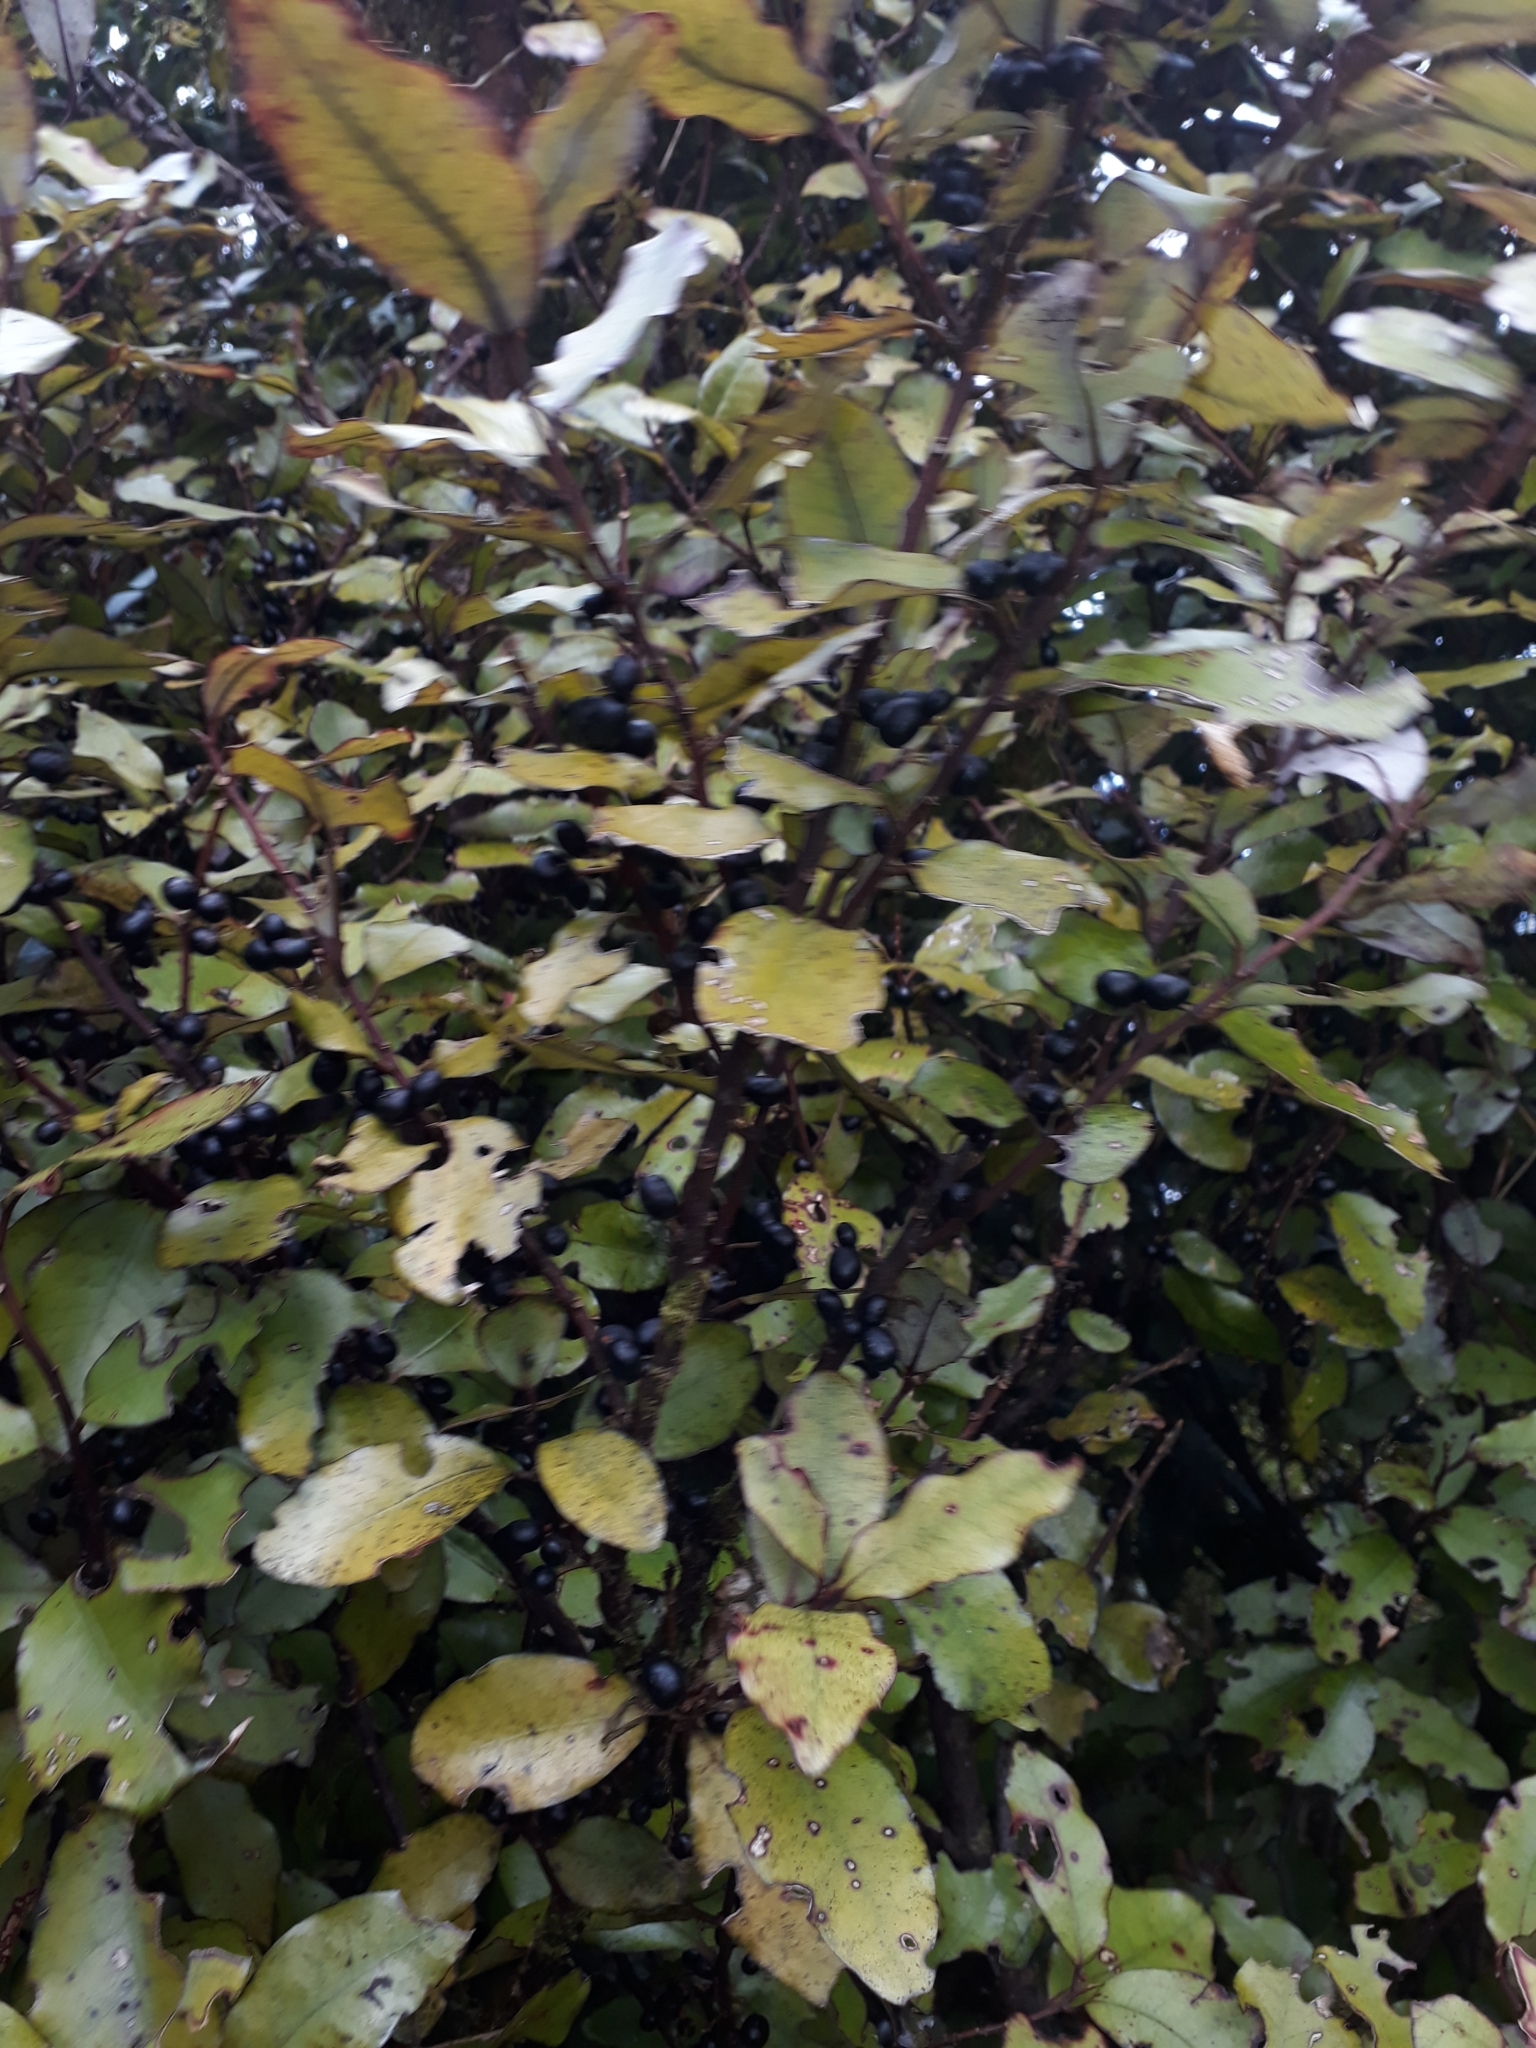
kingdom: Plantae
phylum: Tracheophyta
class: Magnoliopsida
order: Canellales
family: Winteraceae
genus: Pseudowintera
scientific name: Pseudowintera colorata
